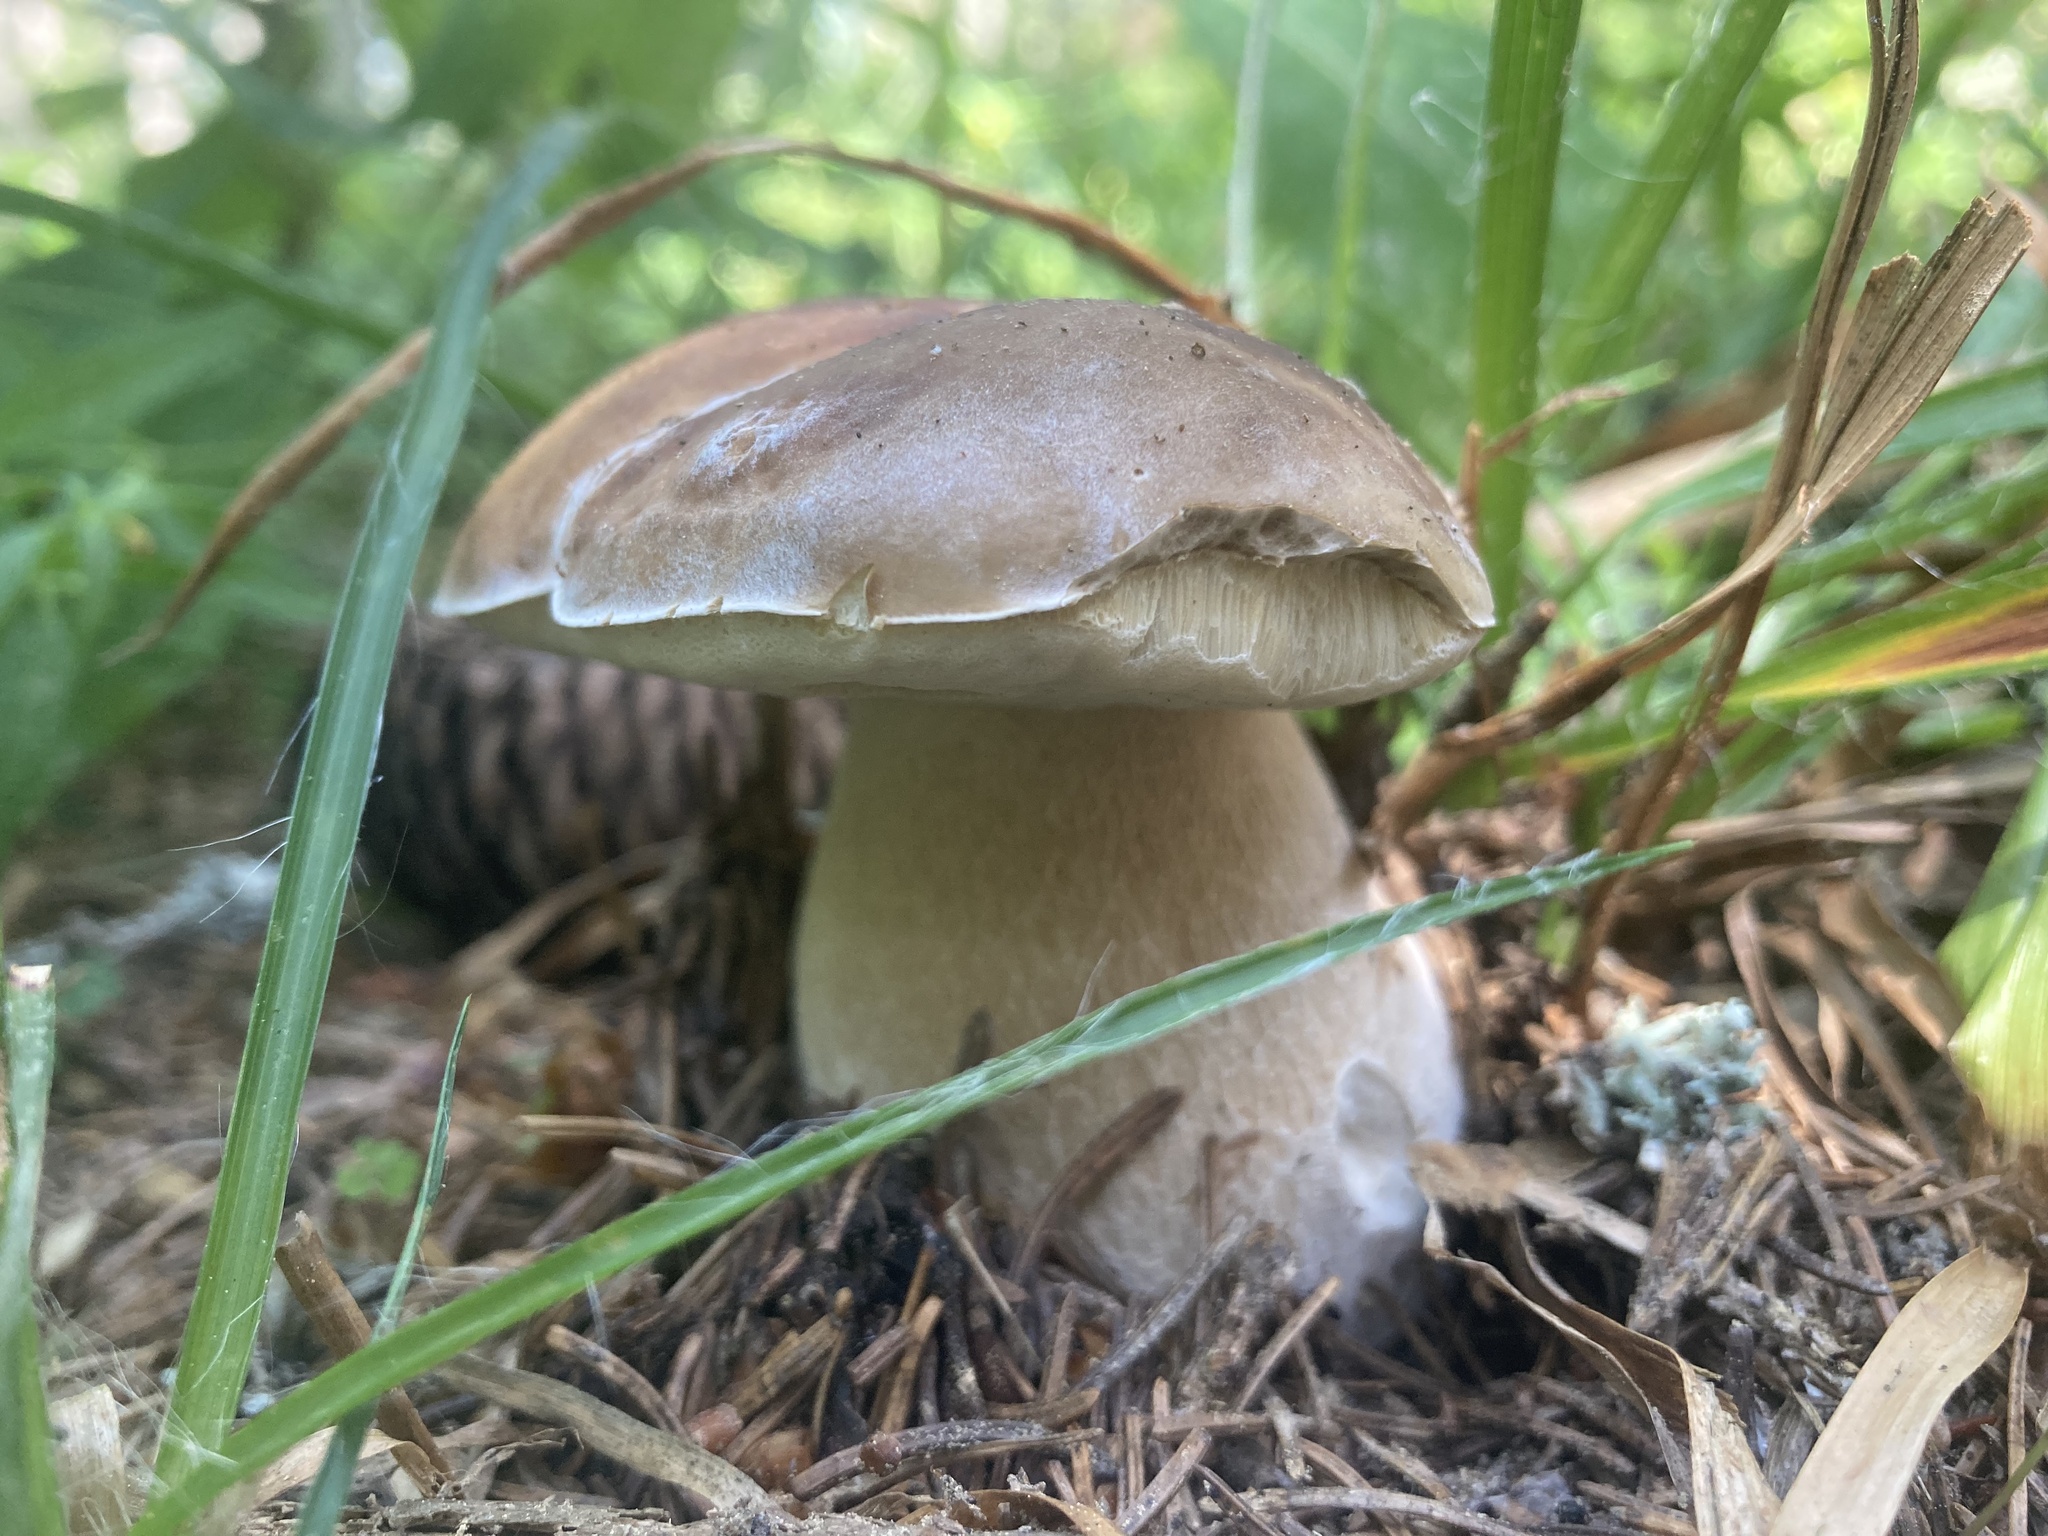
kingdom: Fungi
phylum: Basidiomycota
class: Agaricomycetes
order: Boletales
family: Boletaceae
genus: Boletus
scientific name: Boletus edulis
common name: Cep
